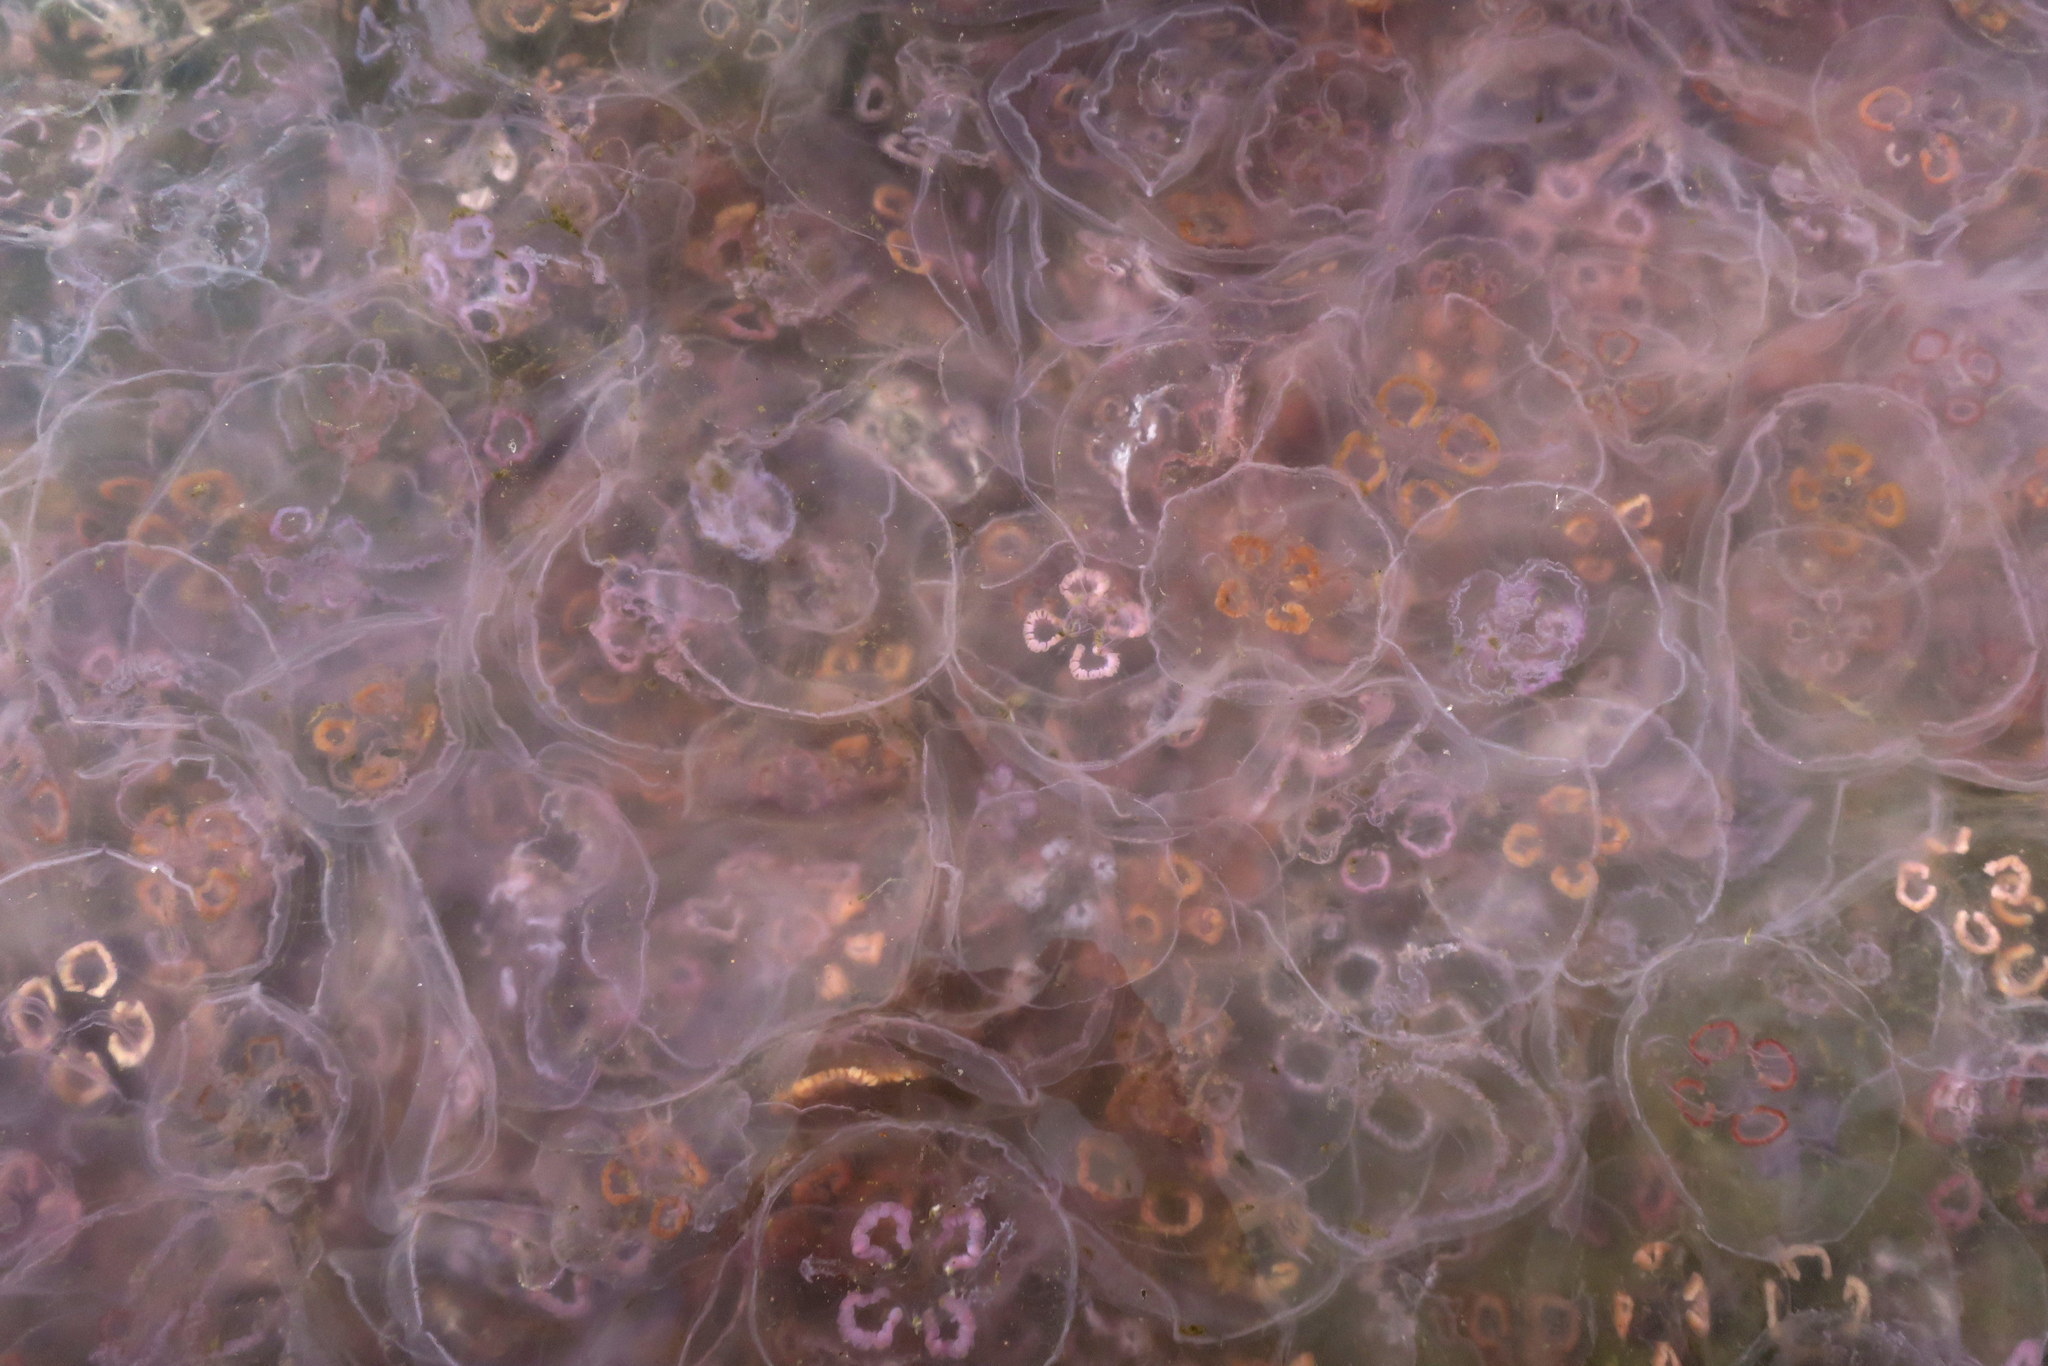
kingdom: Animalia
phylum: Cnidaria
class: Scyphozoa
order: Semaeostomeae
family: Ulmaridae
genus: Aurelia
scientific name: Aurelia aurita
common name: Moon jellyfish
